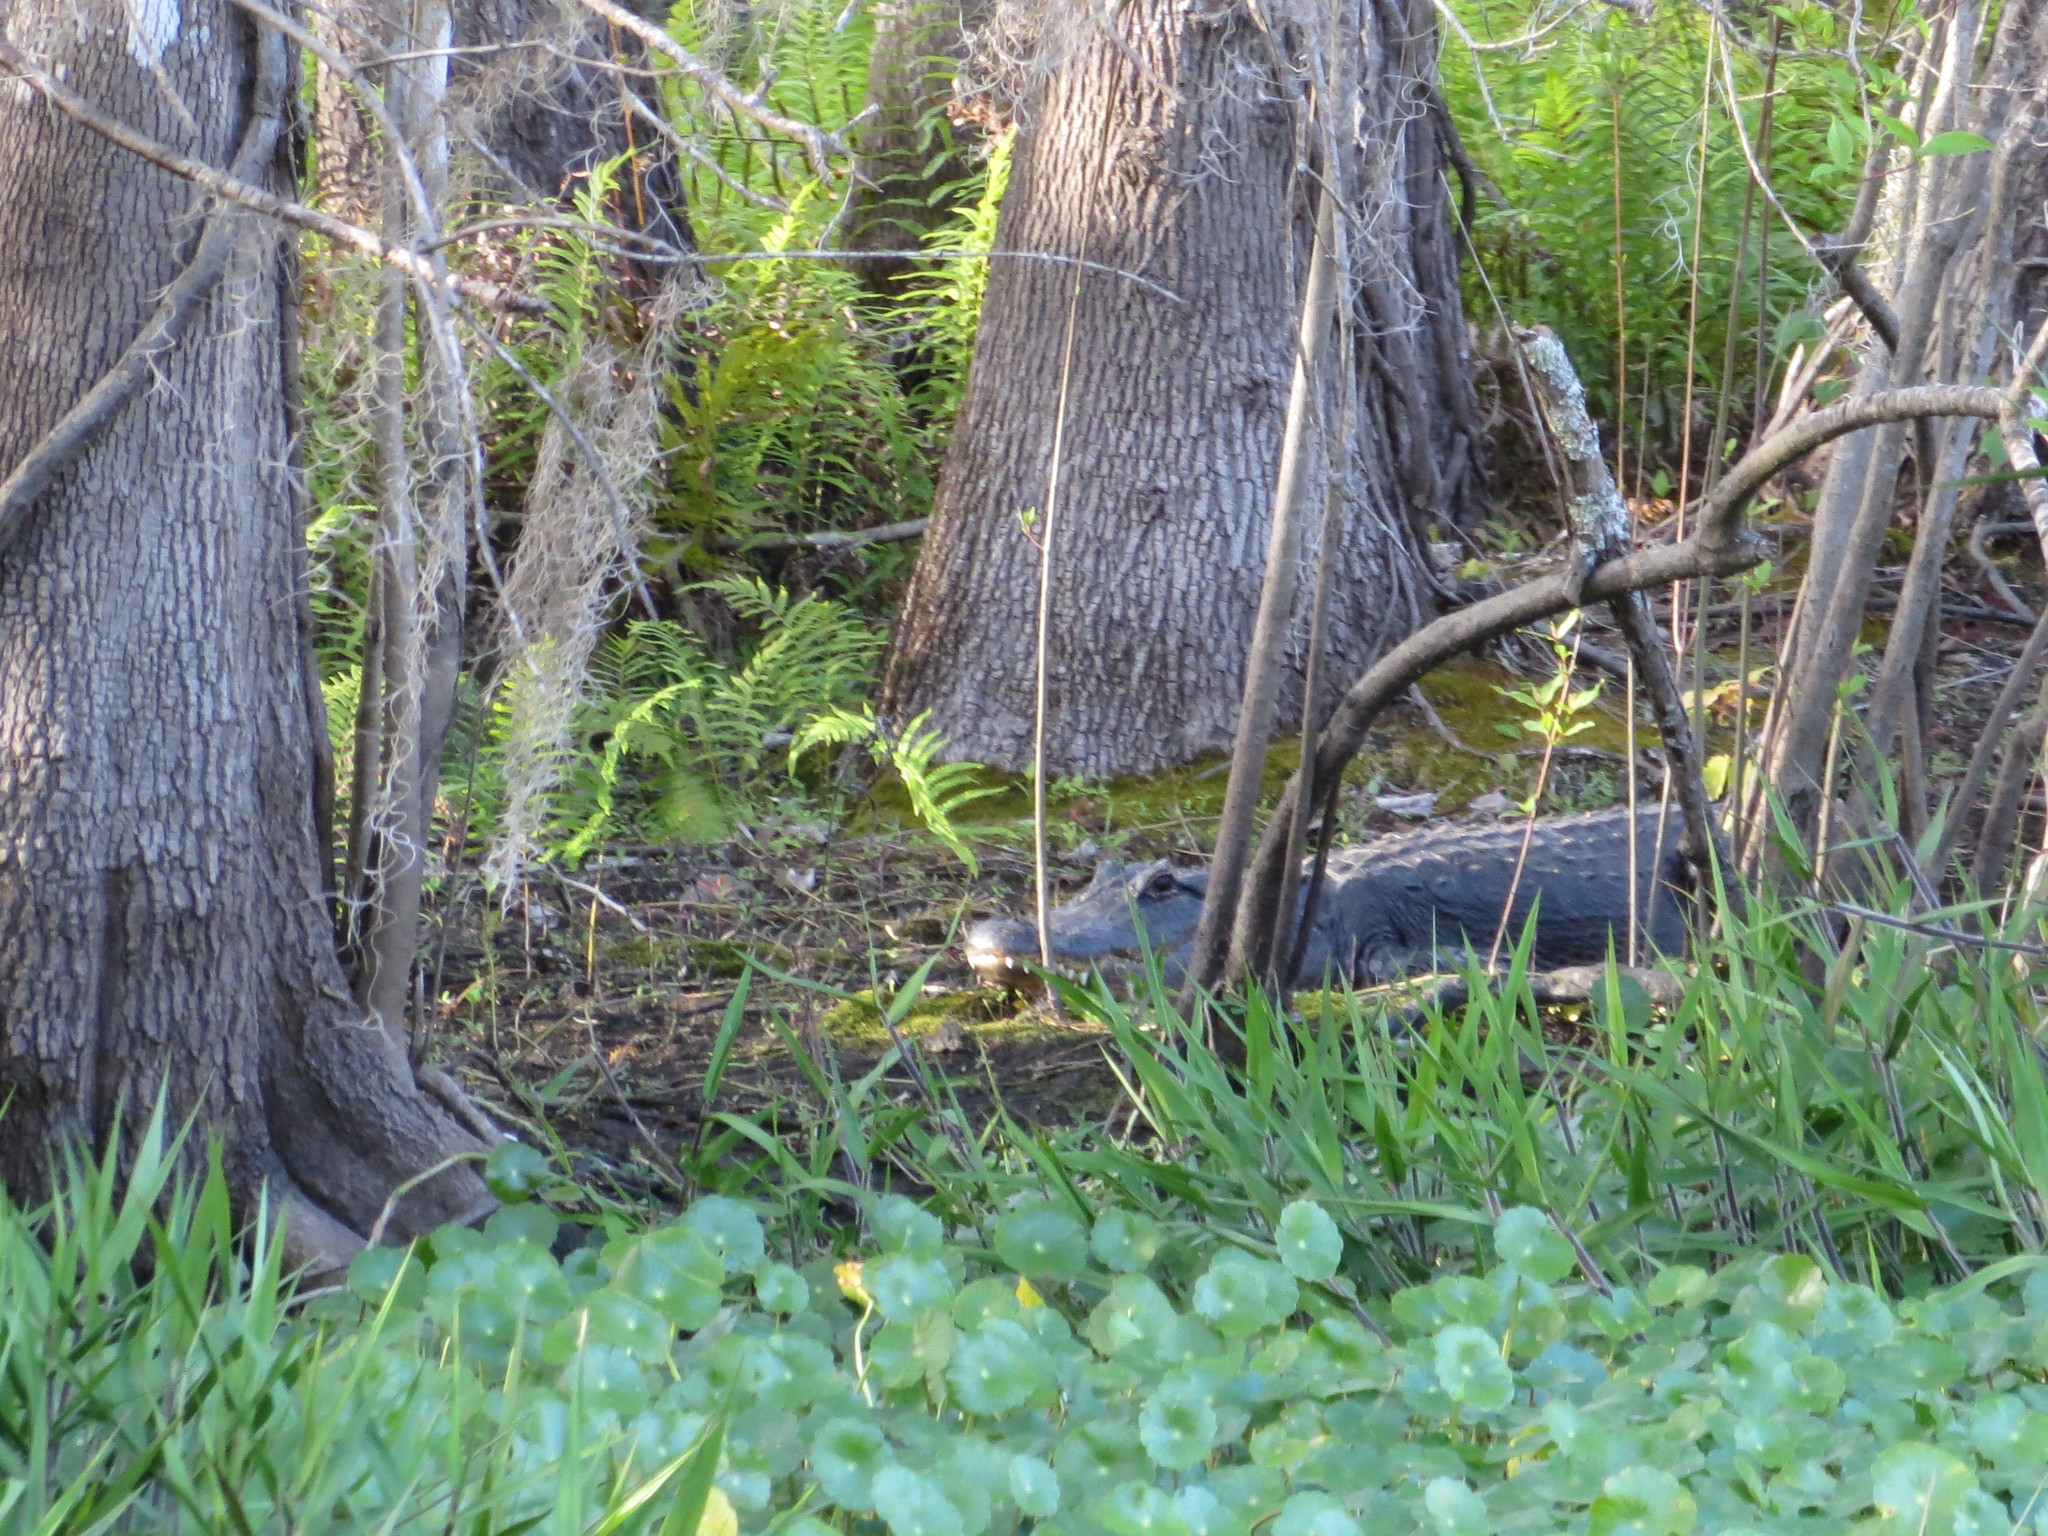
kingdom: Animalia
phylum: Chordata
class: Crocodylia
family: Alligatoridae
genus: Alligator
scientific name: Alligator mississippiensis
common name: American alligator
